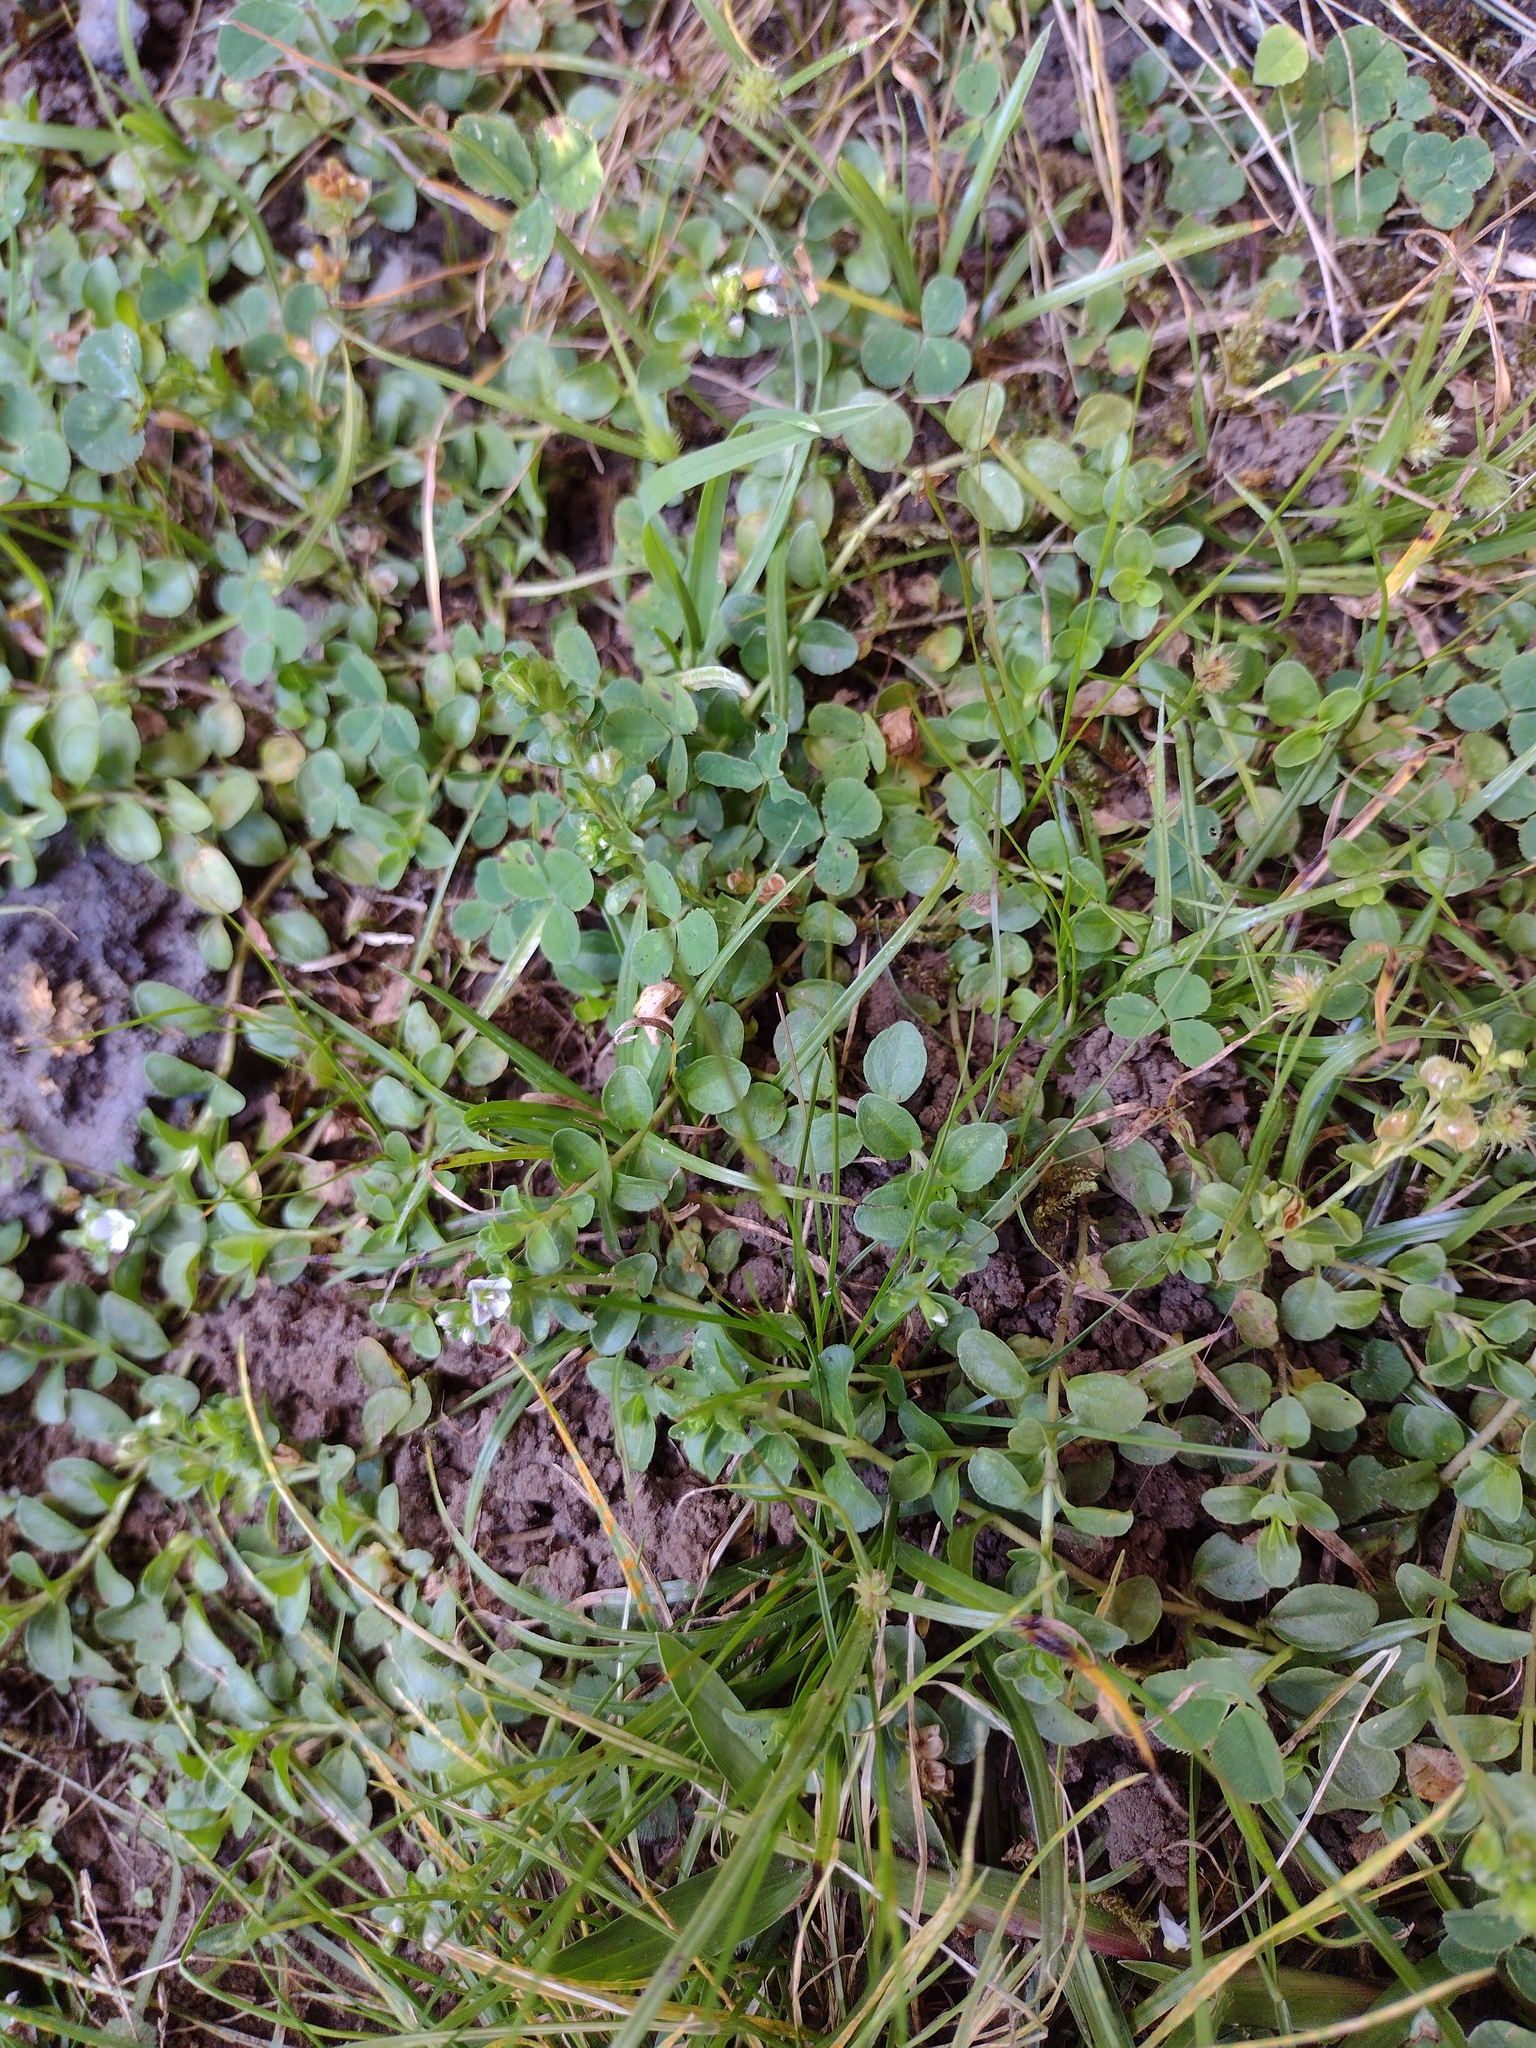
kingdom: Plantae
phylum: Tracheophyta
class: Magnoliopsida
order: Lamiales
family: Plantaginaceae
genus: Veronica
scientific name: Veronica serpyllifolia
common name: Thyme-leaved speedwell
